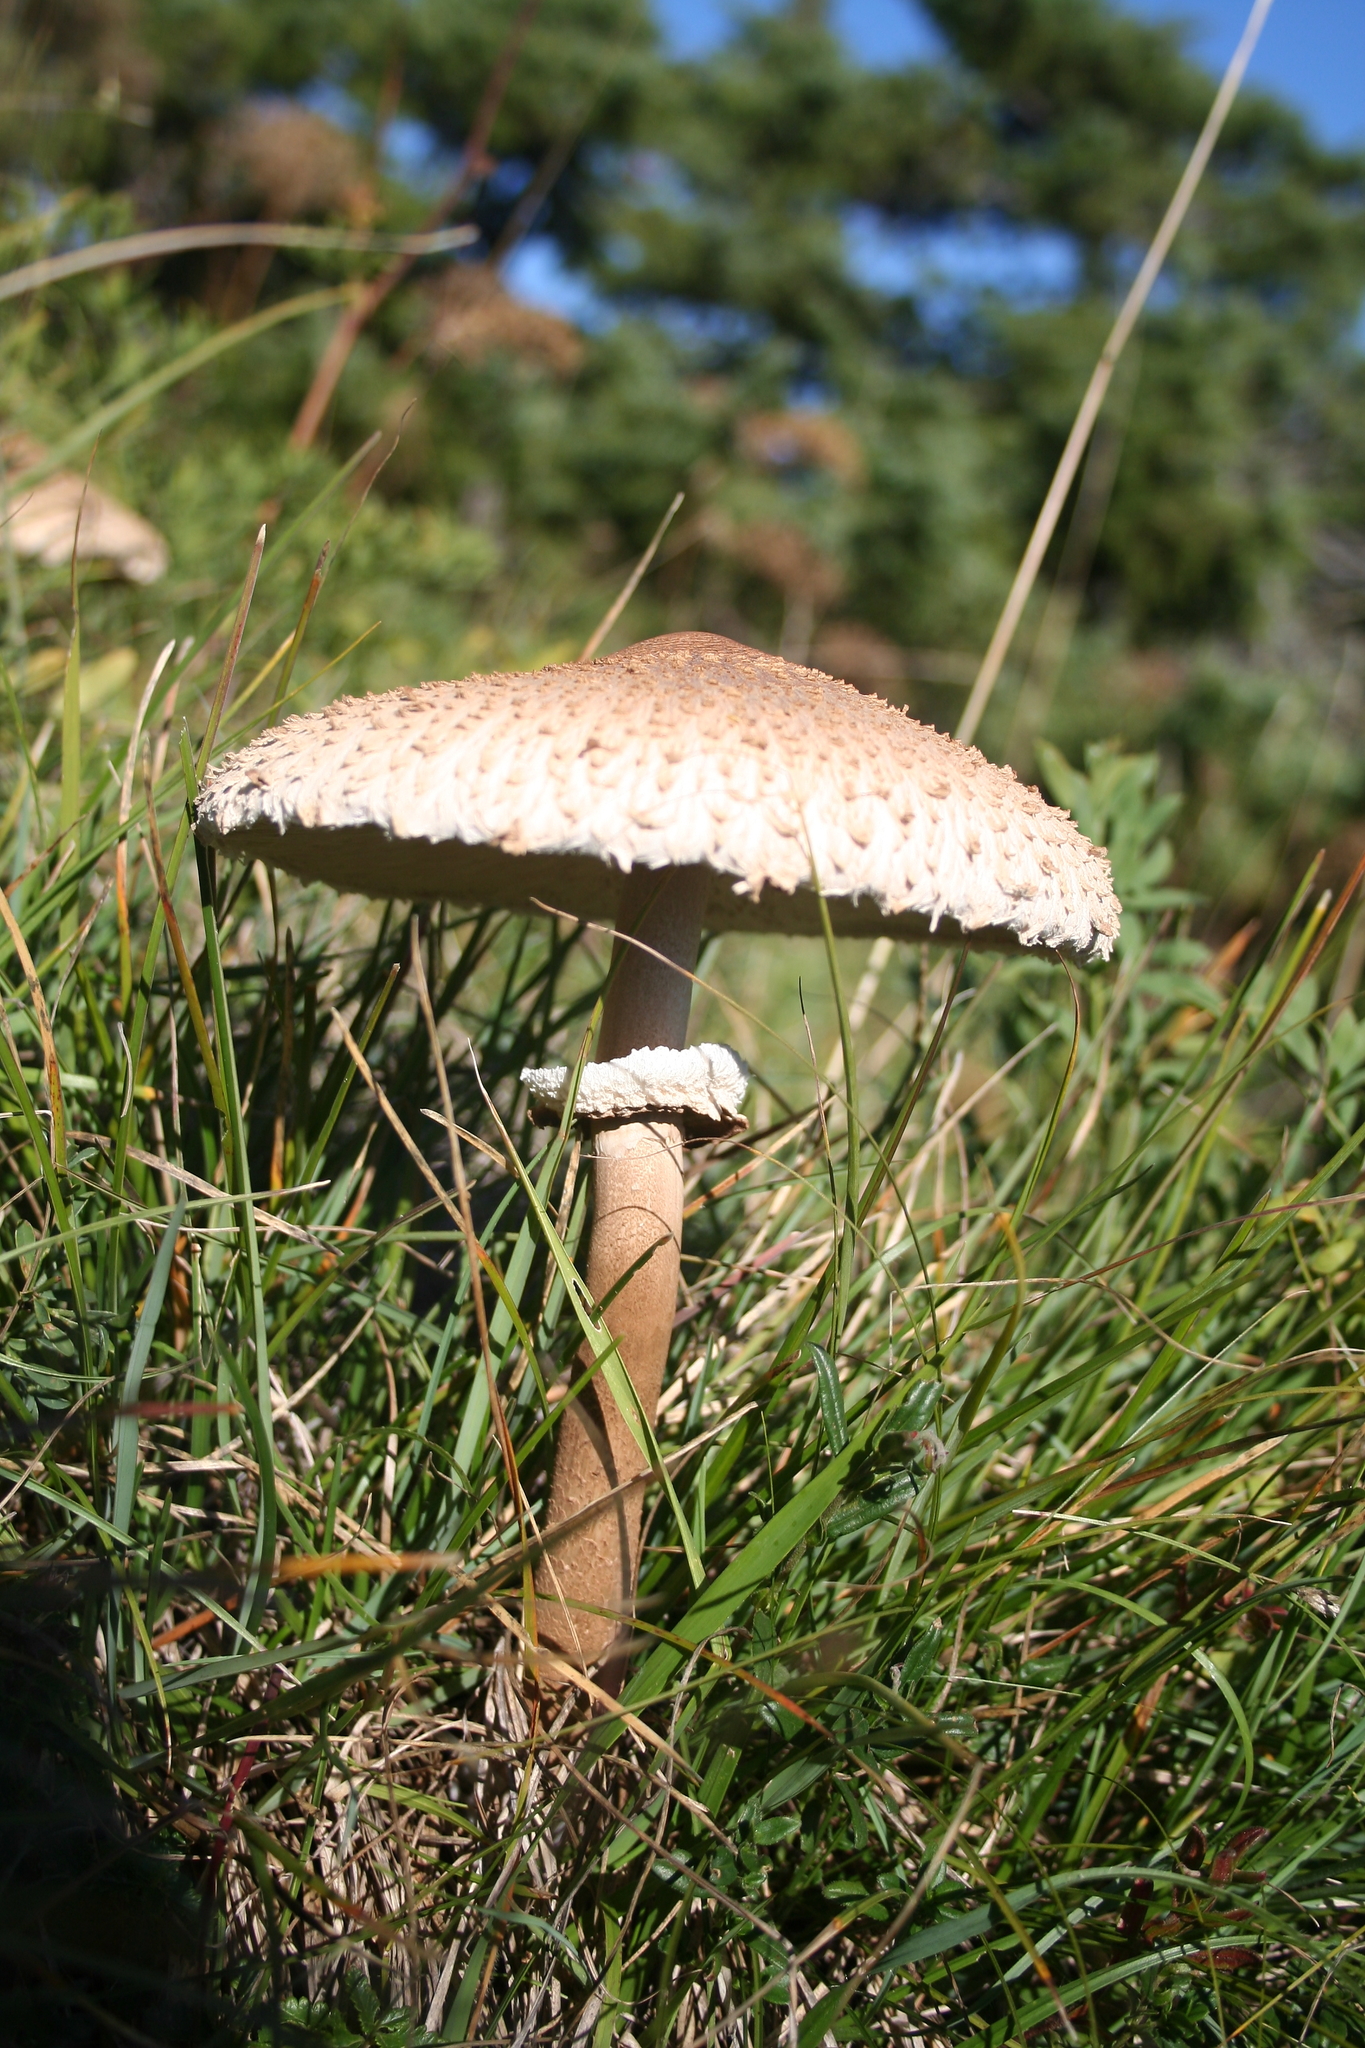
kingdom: Fungi
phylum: Basidiomycota
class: Agaricomycetes
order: Agaricales
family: Agaricaceae
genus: Macrolepiota
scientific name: Macrolepiota procera
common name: Parasol
